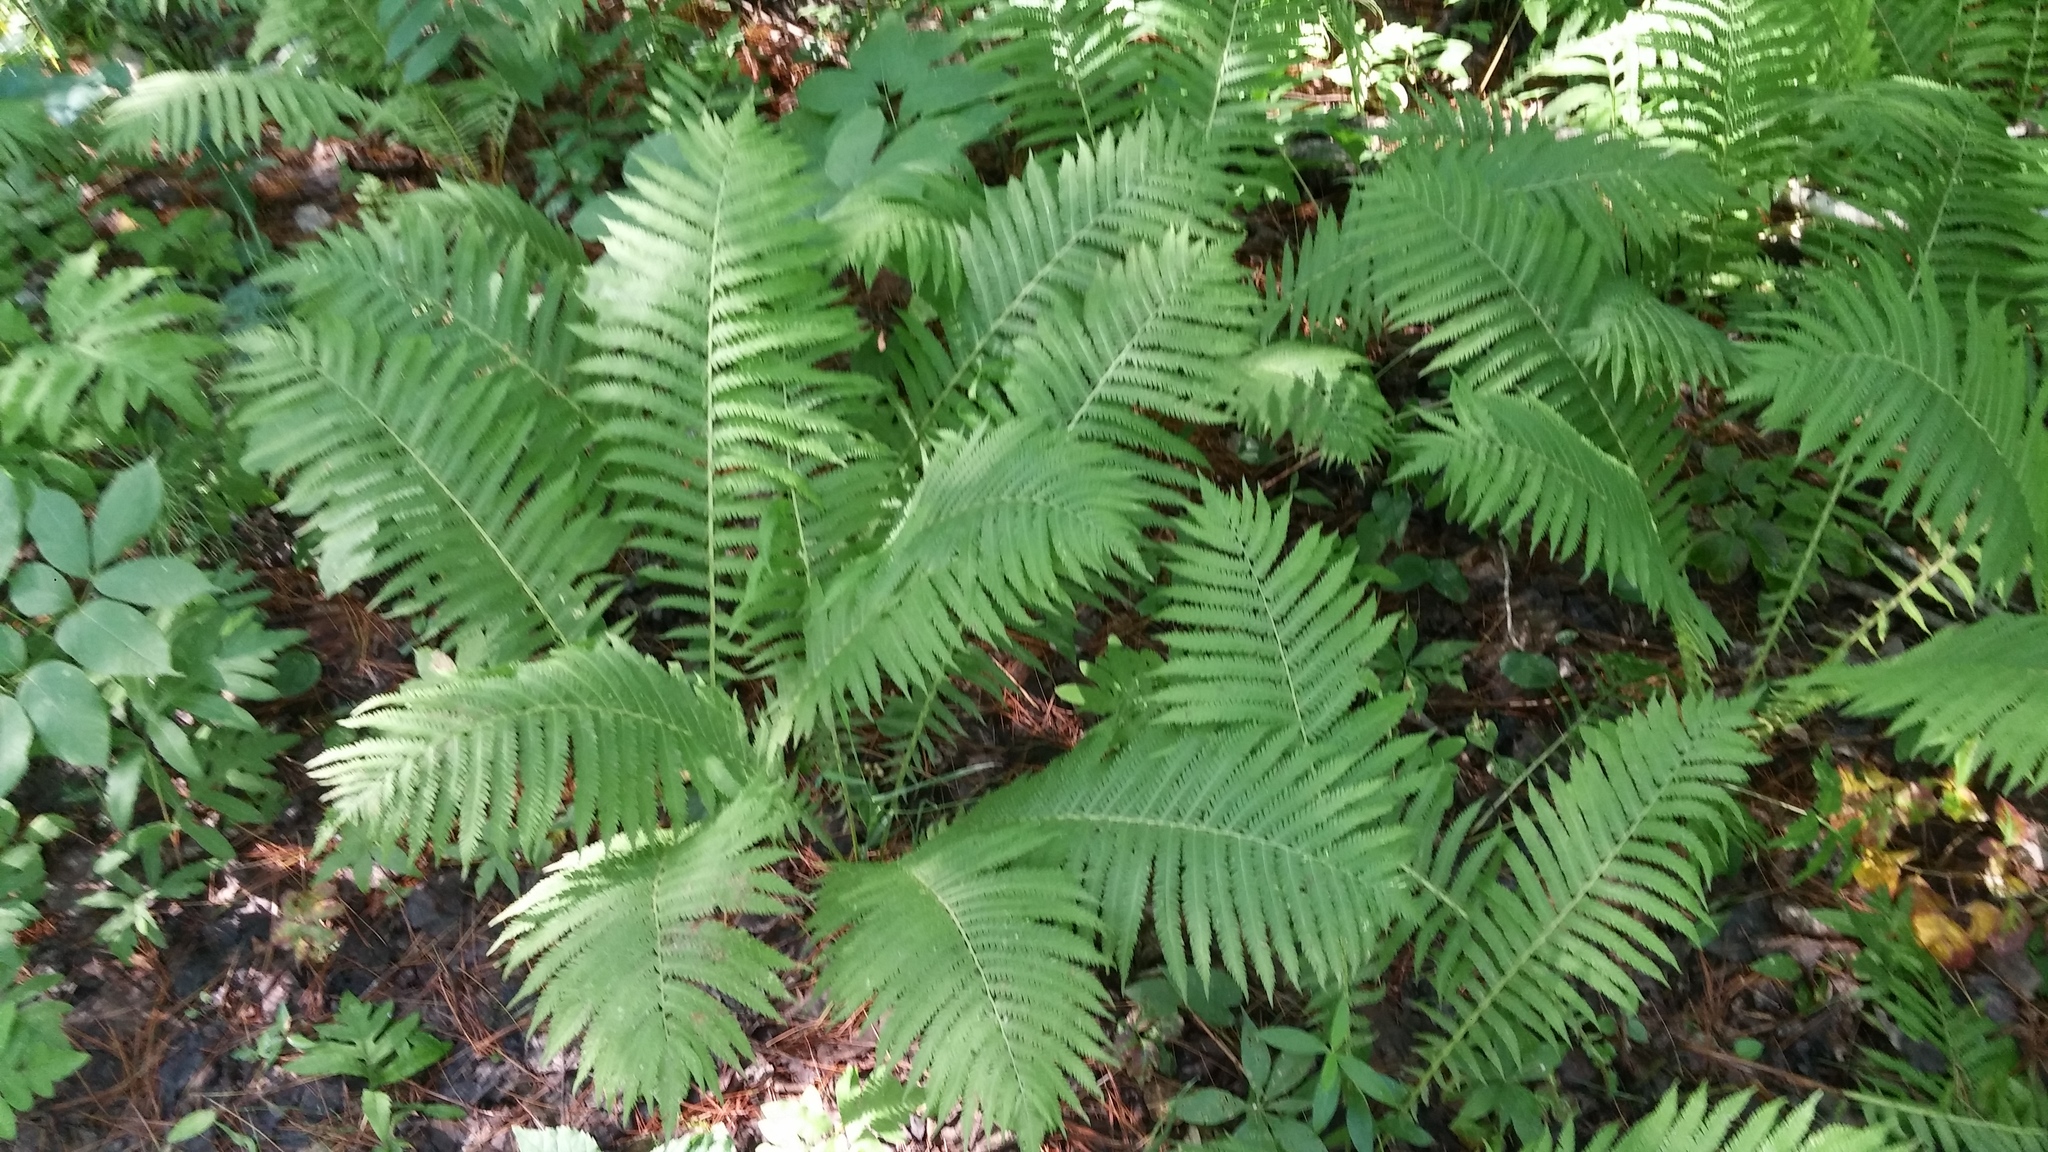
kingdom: Plantae
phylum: Tracheophyta
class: Polypodiopsida
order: Polypodiales
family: Onocleaceae
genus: Matteuccia
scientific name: Matteuccia struthiopteris
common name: Ostrich fern
